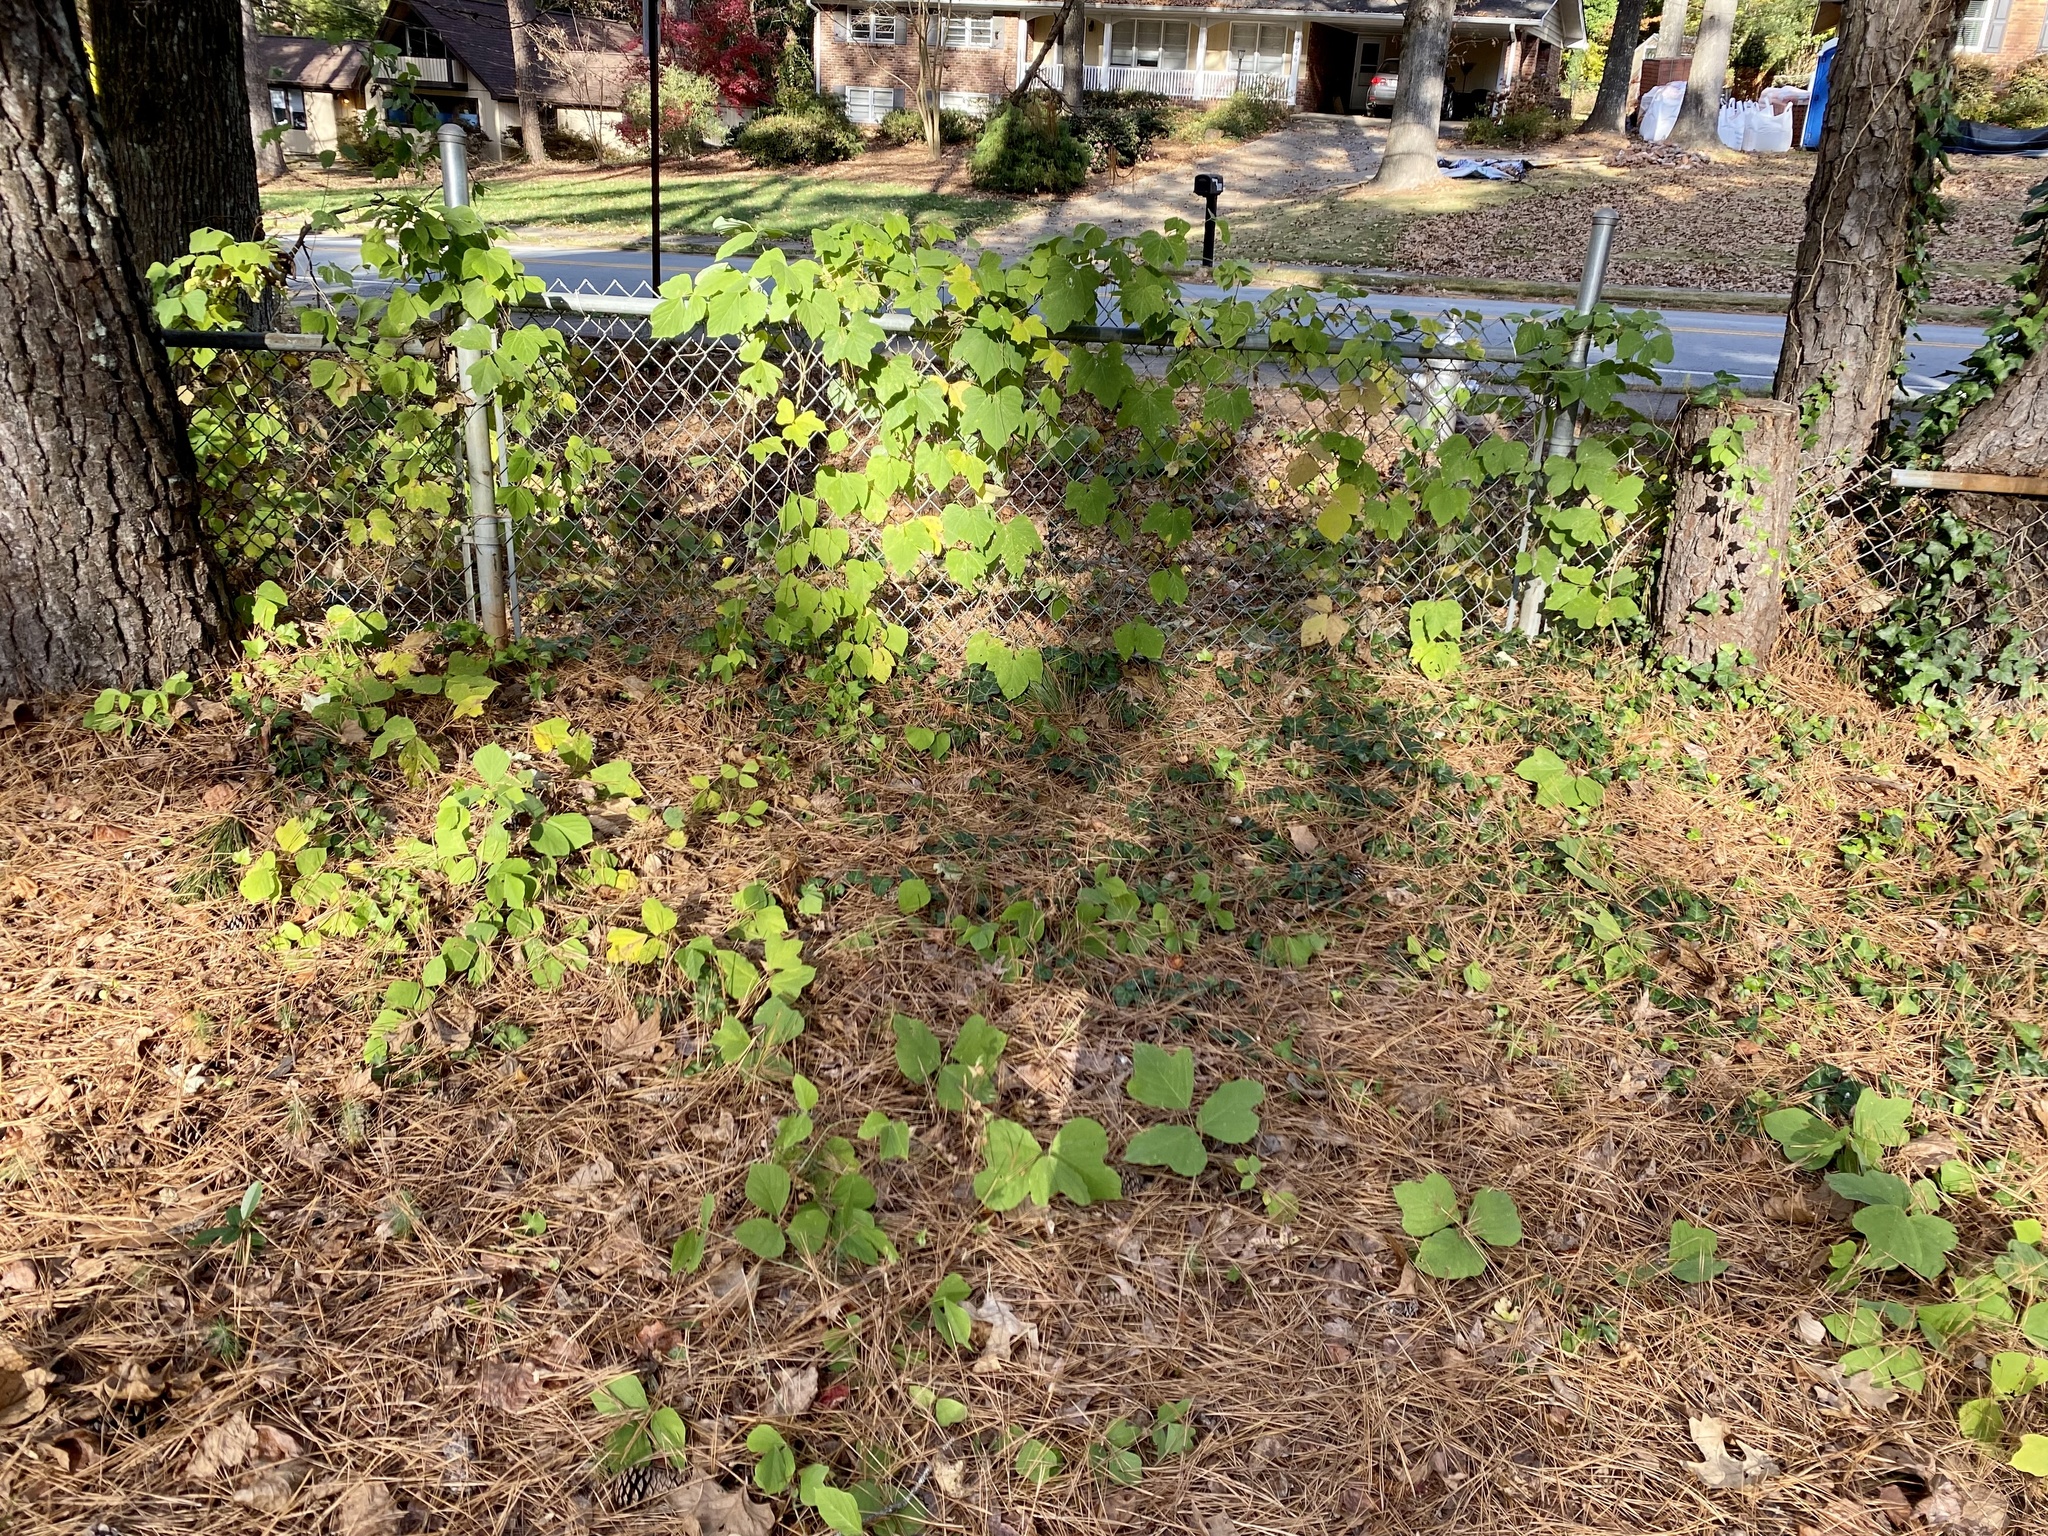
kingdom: Plantae
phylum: Tracheophyta
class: Magnoliopsida
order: Fabales
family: Fabaceae
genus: Pueraria
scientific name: Pueraria montana
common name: Kudzu
